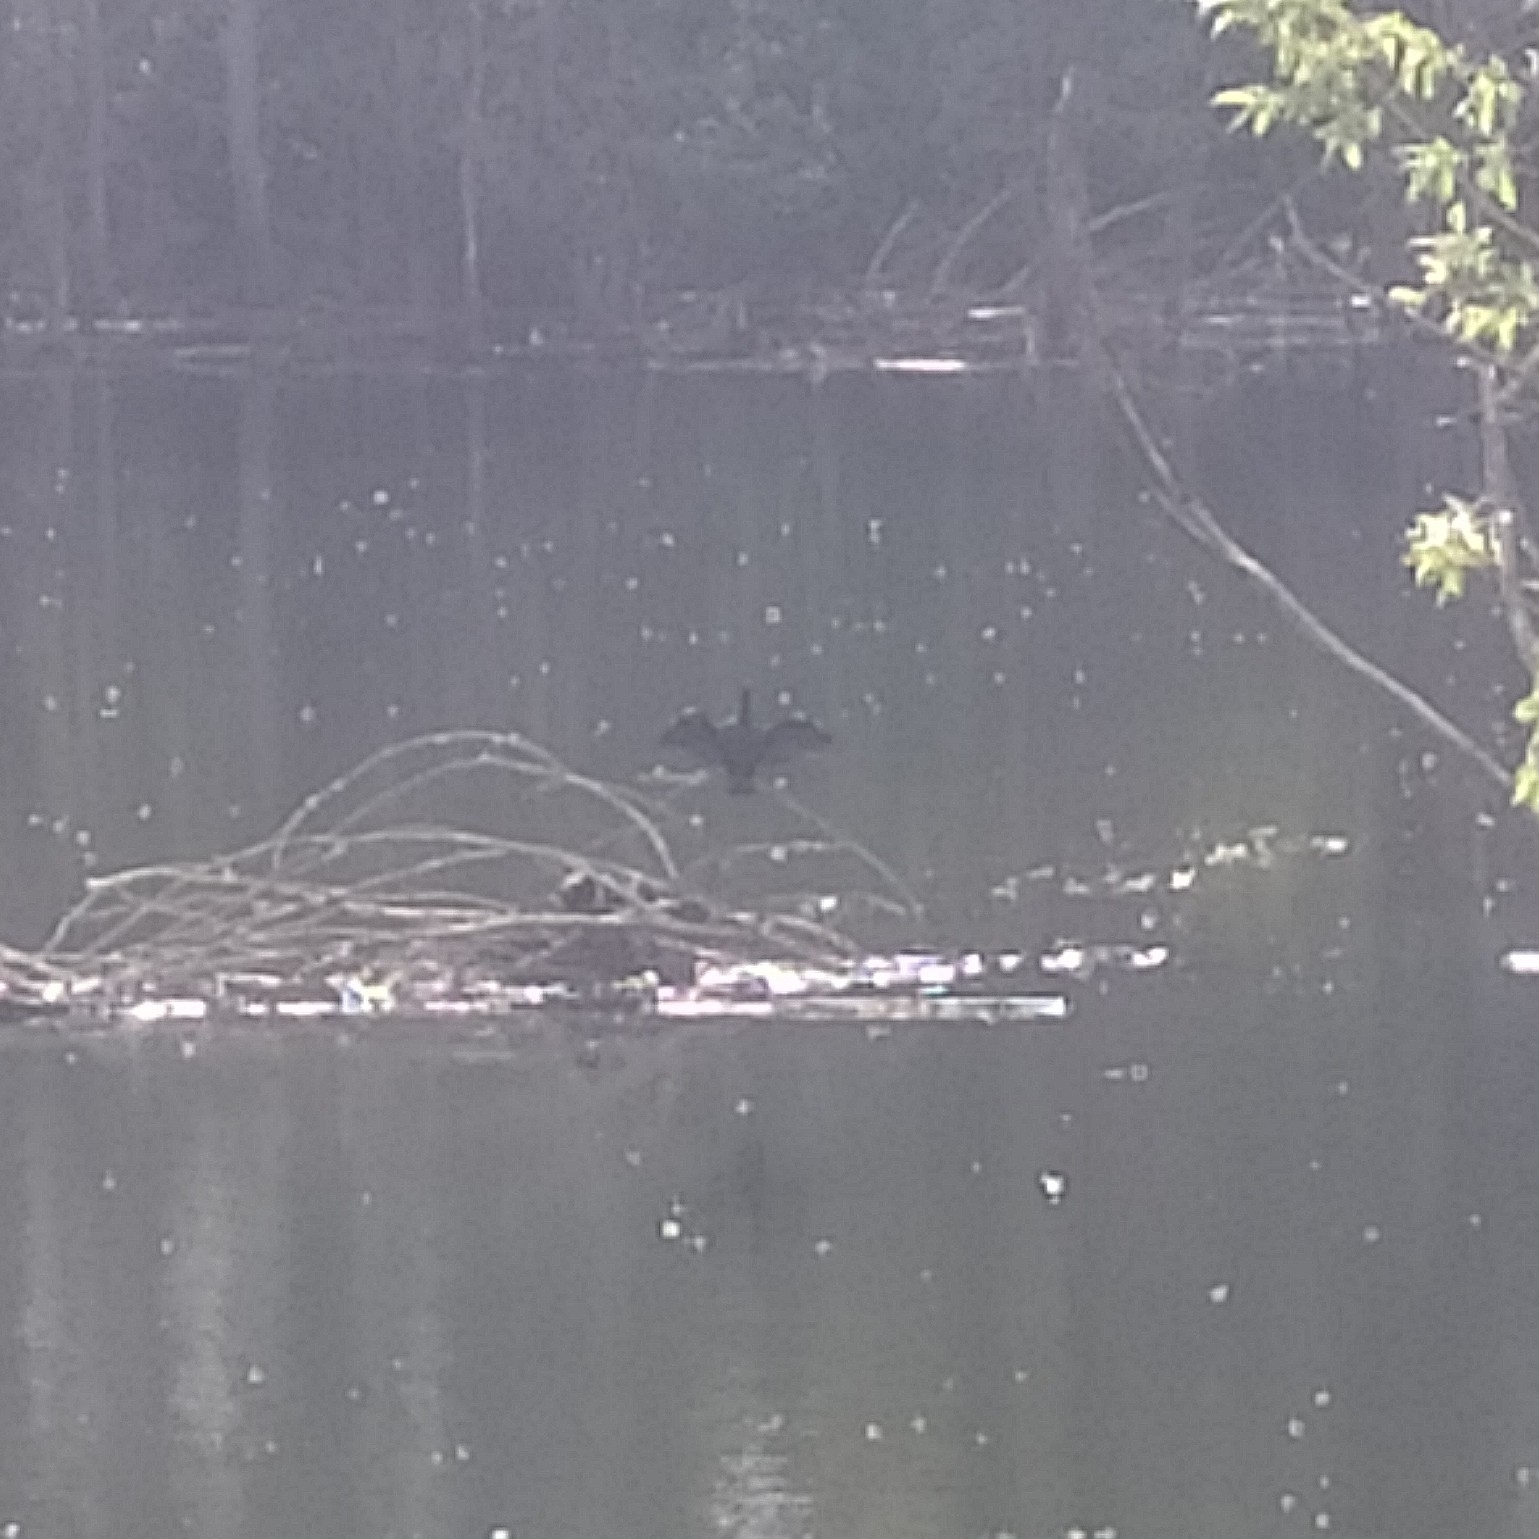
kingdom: Animalia
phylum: Chordata
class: Aves
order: Suliformes
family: Phalacrocoracidae
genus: Phalacrocorax
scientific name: Phalacrocorax carbo
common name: Great cormorant
